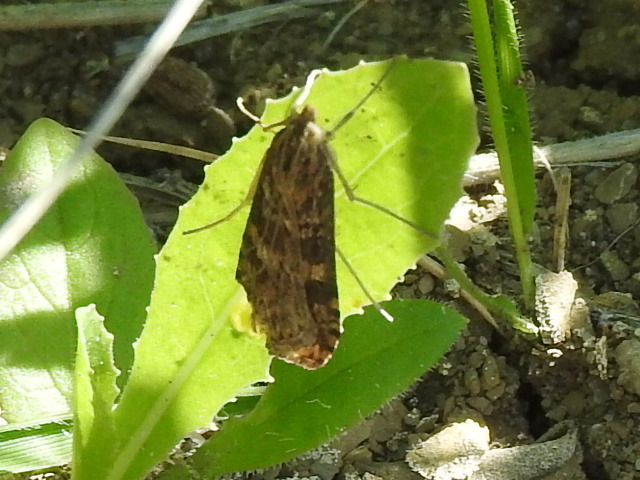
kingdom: Animalia
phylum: Arthropoda
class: Insecta
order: Lepidoptera
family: Crambidae
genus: Nomophila
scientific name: Nomophila nearctica
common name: American rush veneer
